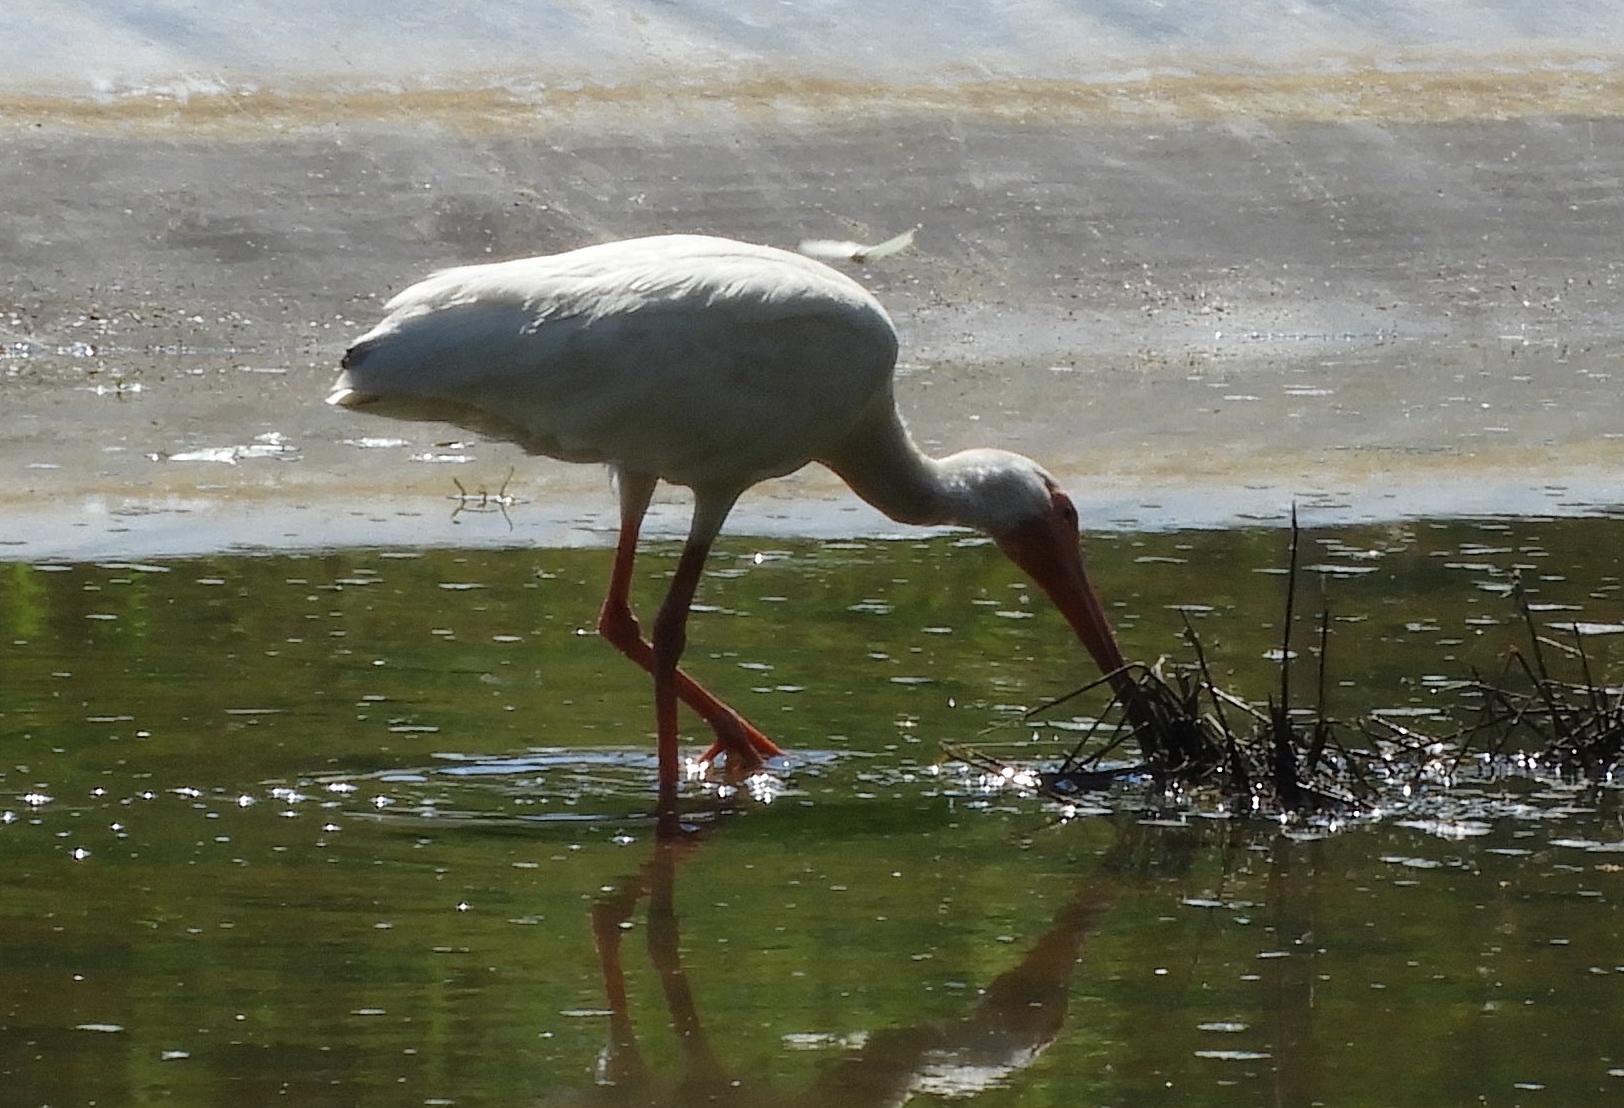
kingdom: Animalia
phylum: Chordata
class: Aves
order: Pelecaniformes
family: Threskiornithidae
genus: Eudocimus
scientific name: Eudocimus albus
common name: White ibis
